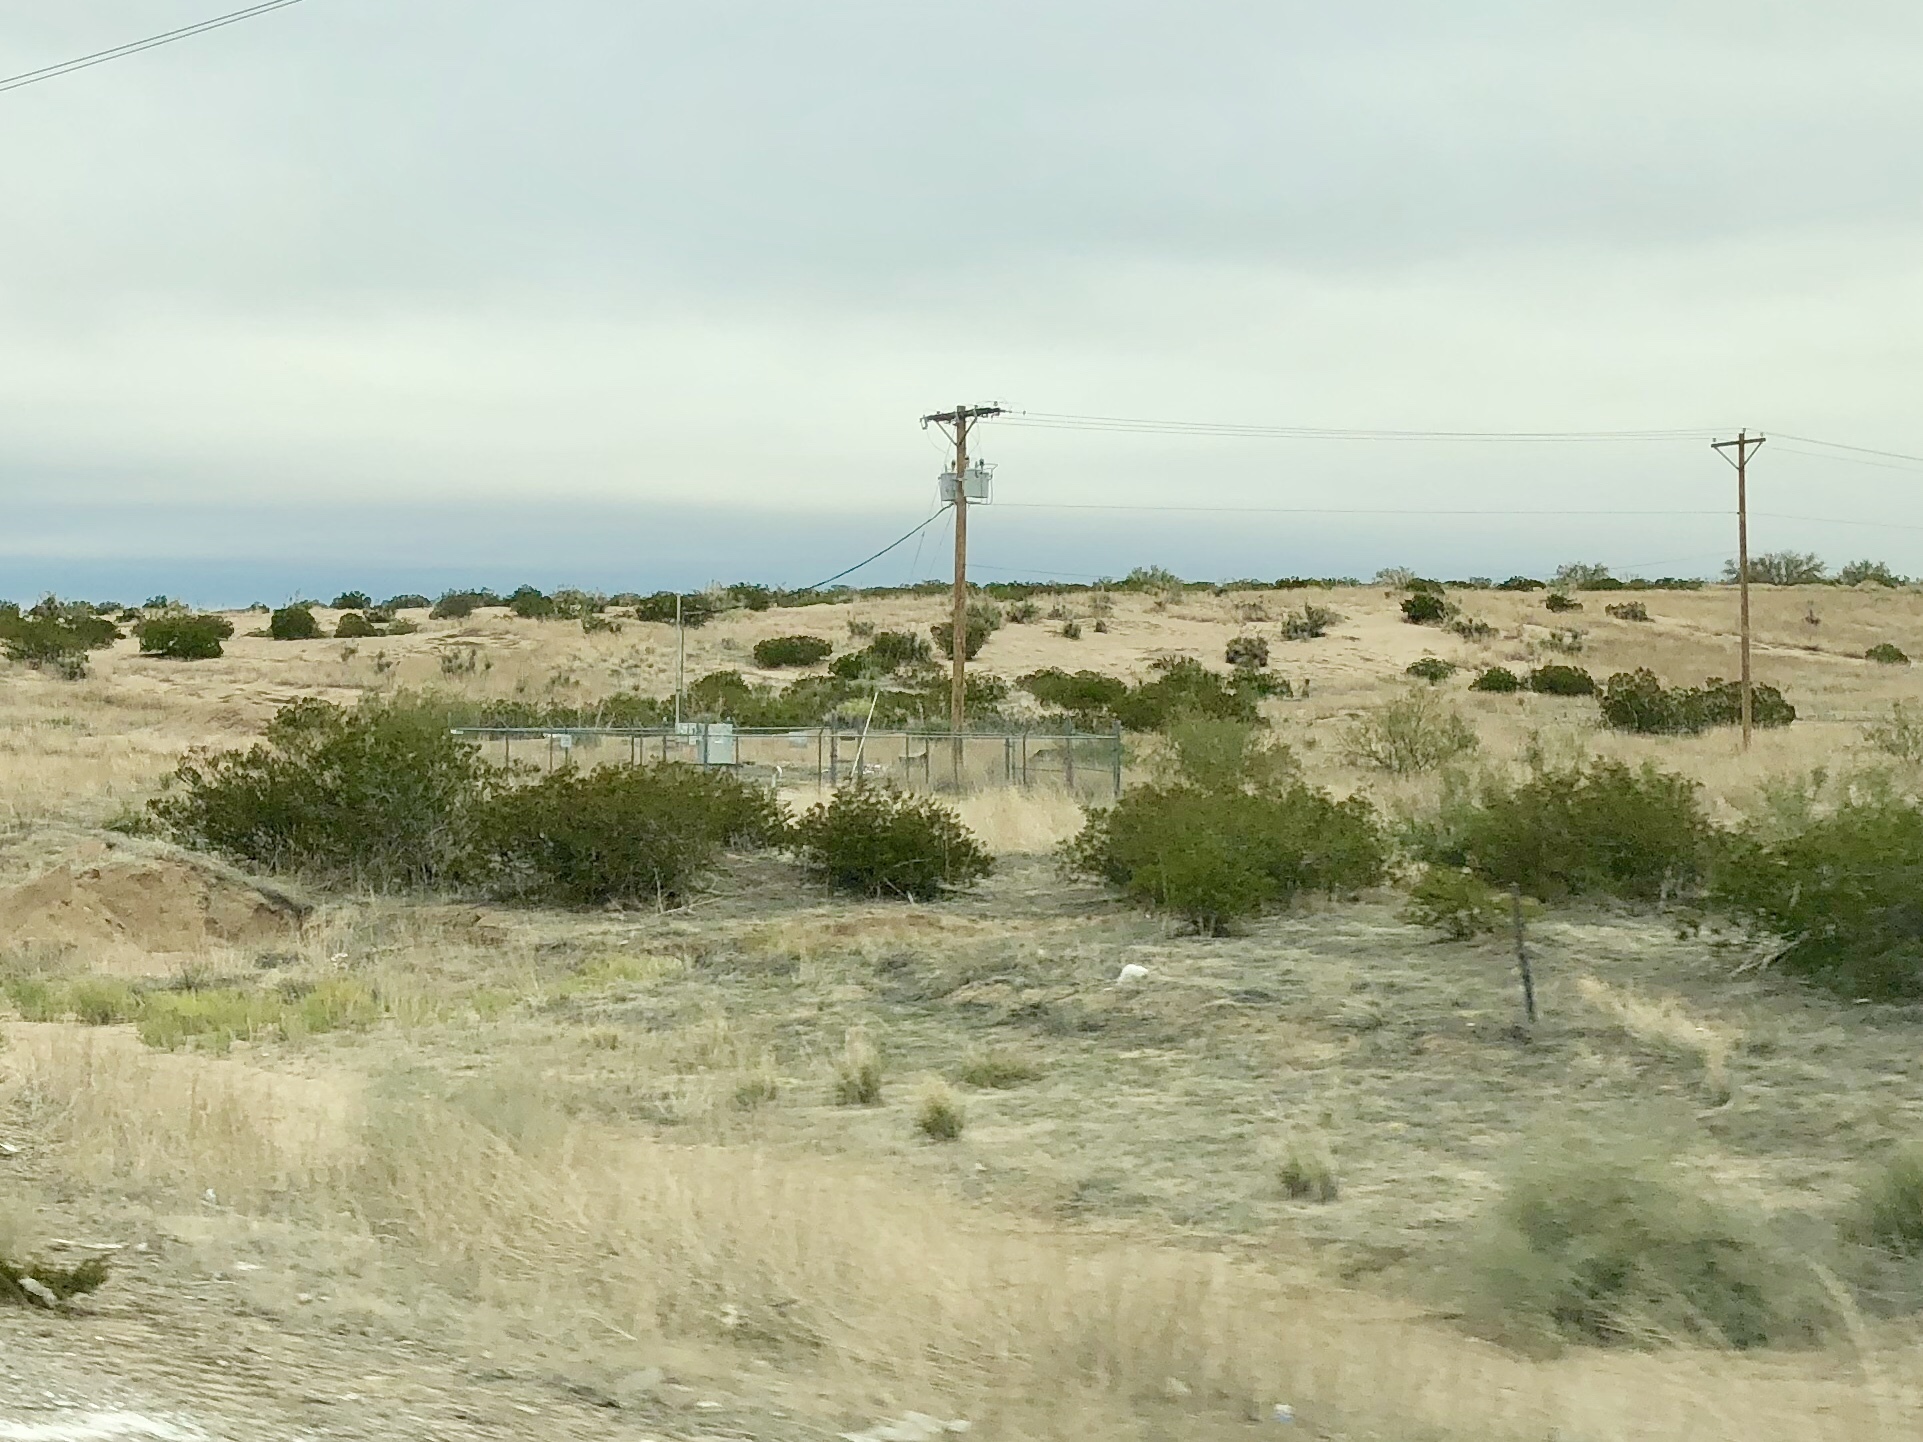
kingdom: Plantae
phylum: Tracheophyta
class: Magnoliopsida
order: Zygophyllales
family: Zygophyllaceae
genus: Larrea
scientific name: Larrea tridentata
